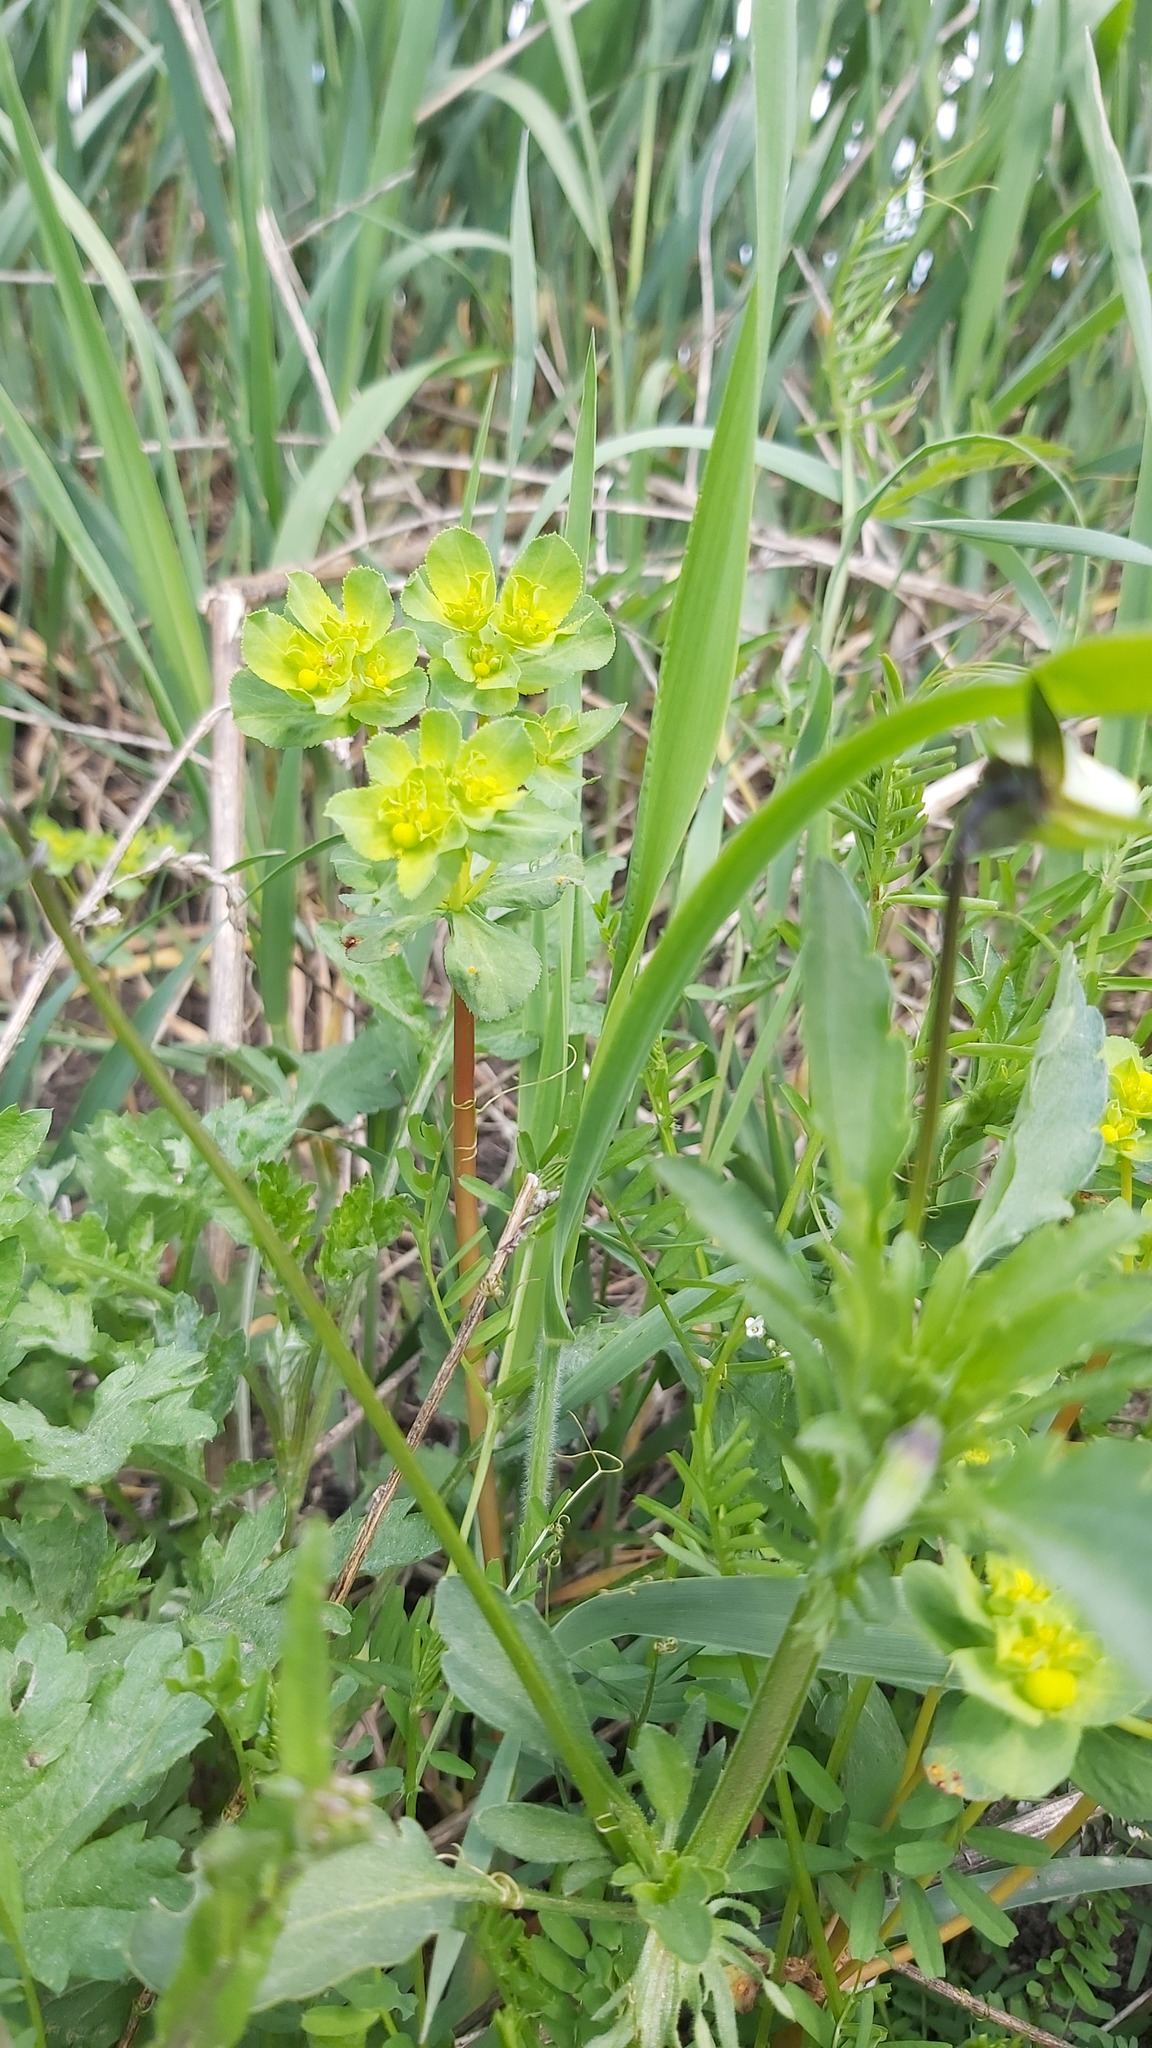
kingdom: Plantae
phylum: Tracheophyta
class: Magnoliopsida
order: Malpighiales
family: Euphorbiaceae
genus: Euphorbia
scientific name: Euphorbia helioscopia
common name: Sun spurge
